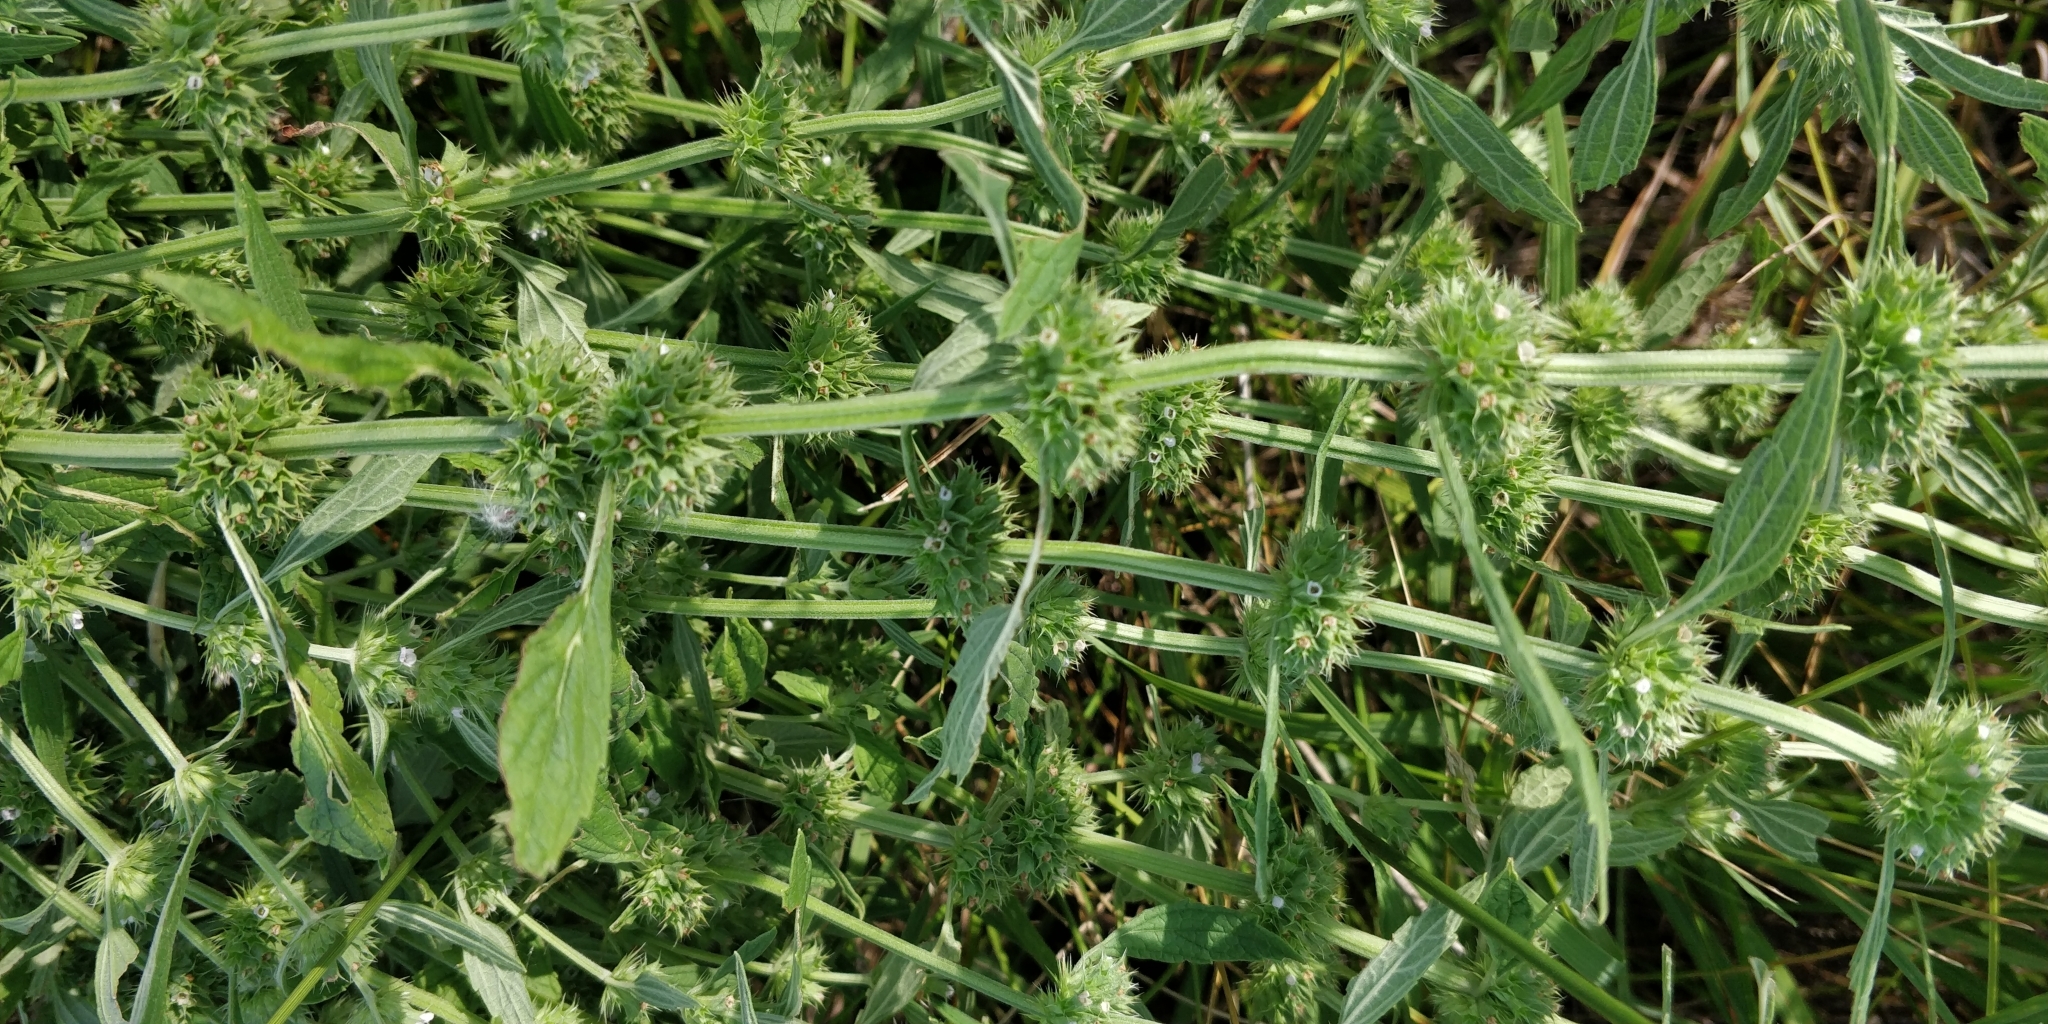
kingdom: Plantae
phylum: Tracheophyta
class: Magnoliopsida
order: Lamiales
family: Lamiaceae
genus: Chaiturus
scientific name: Chaiturus marrubiastrum
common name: Lion's tail
